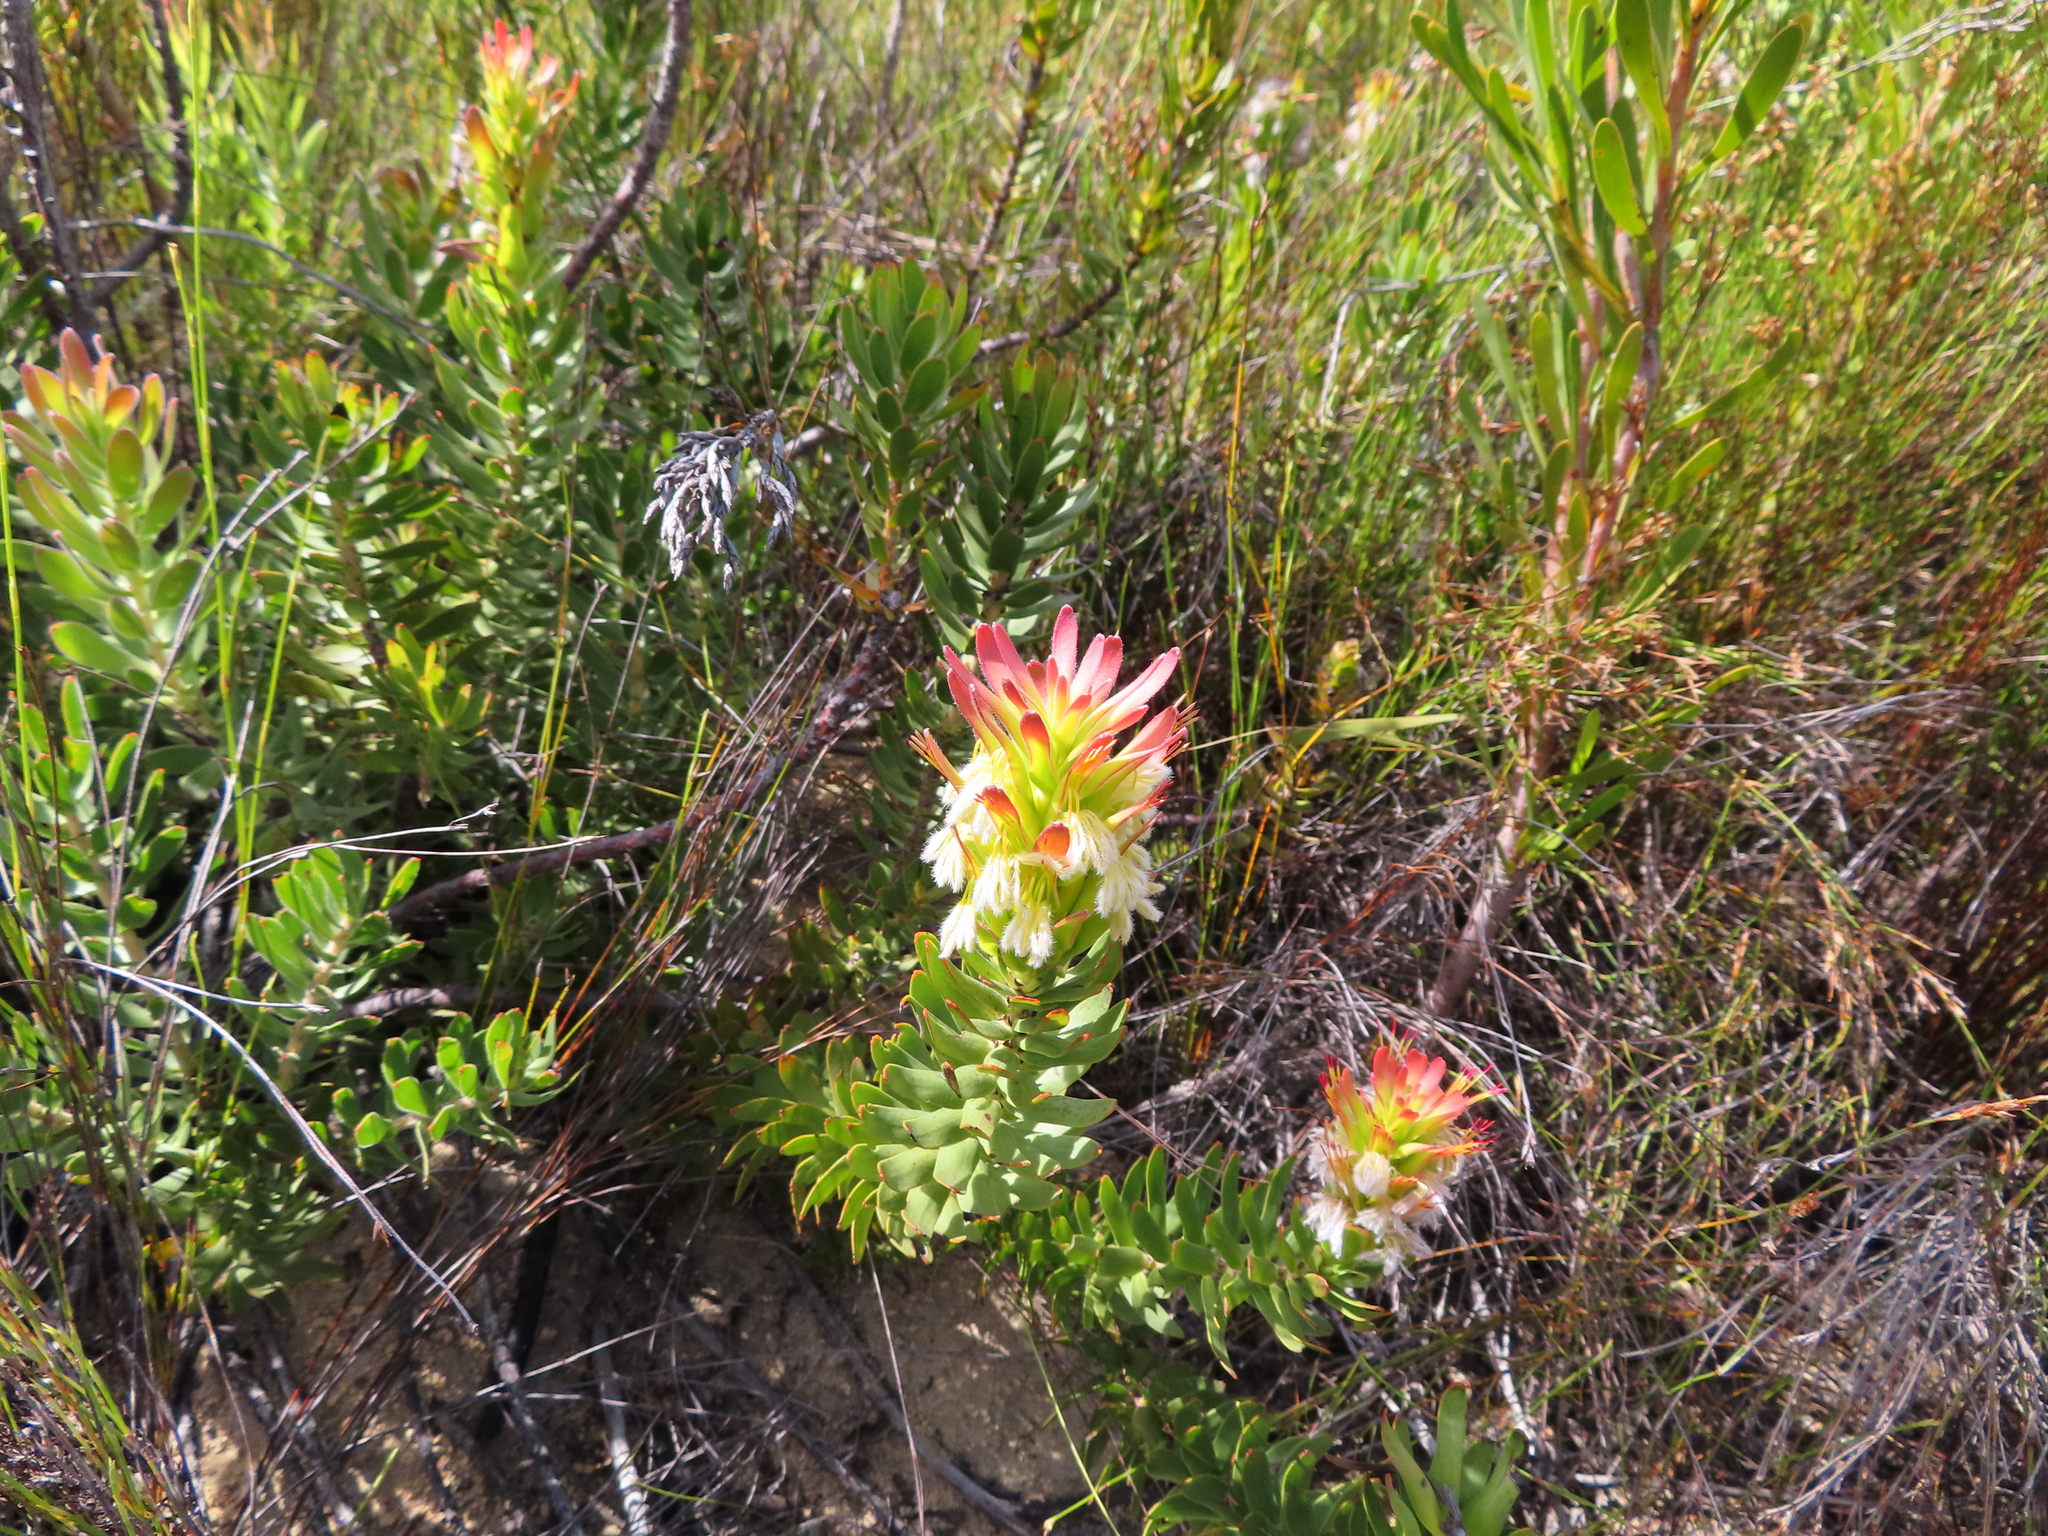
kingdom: Plantae
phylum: Tracheophyta
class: Magnoliopsida
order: Proteales
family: Proteaceae
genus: Mimetes
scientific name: Mimetes cucullatus
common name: Common pagoda
